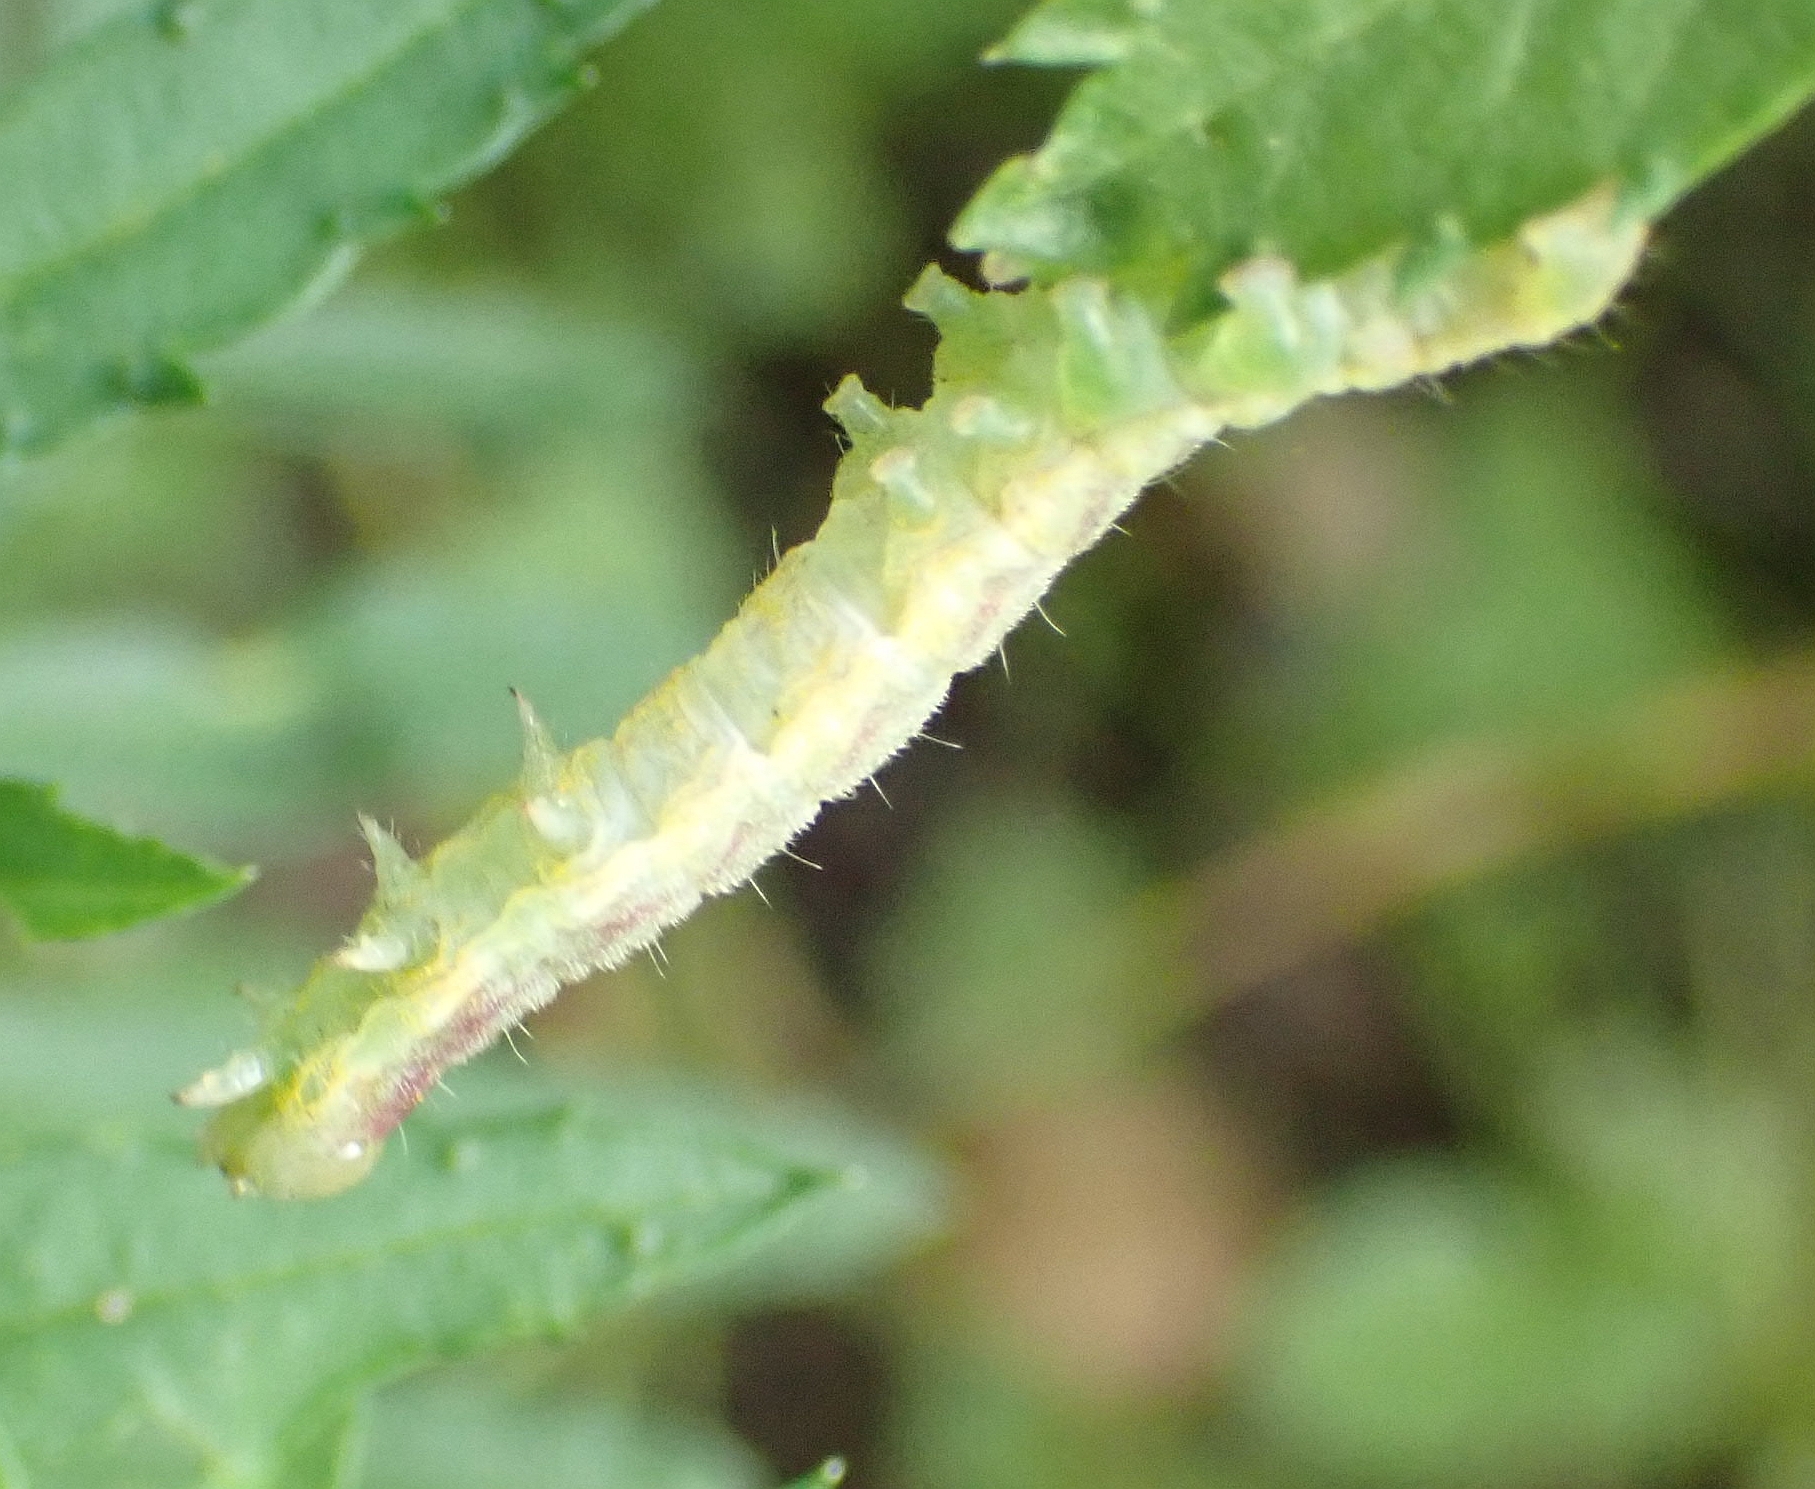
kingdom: Animalia
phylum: Arthropoda
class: Insecta
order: Lepidoptera
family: Noctuidae
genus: Schinia
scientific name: Schinia florida
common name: Primrose moth
